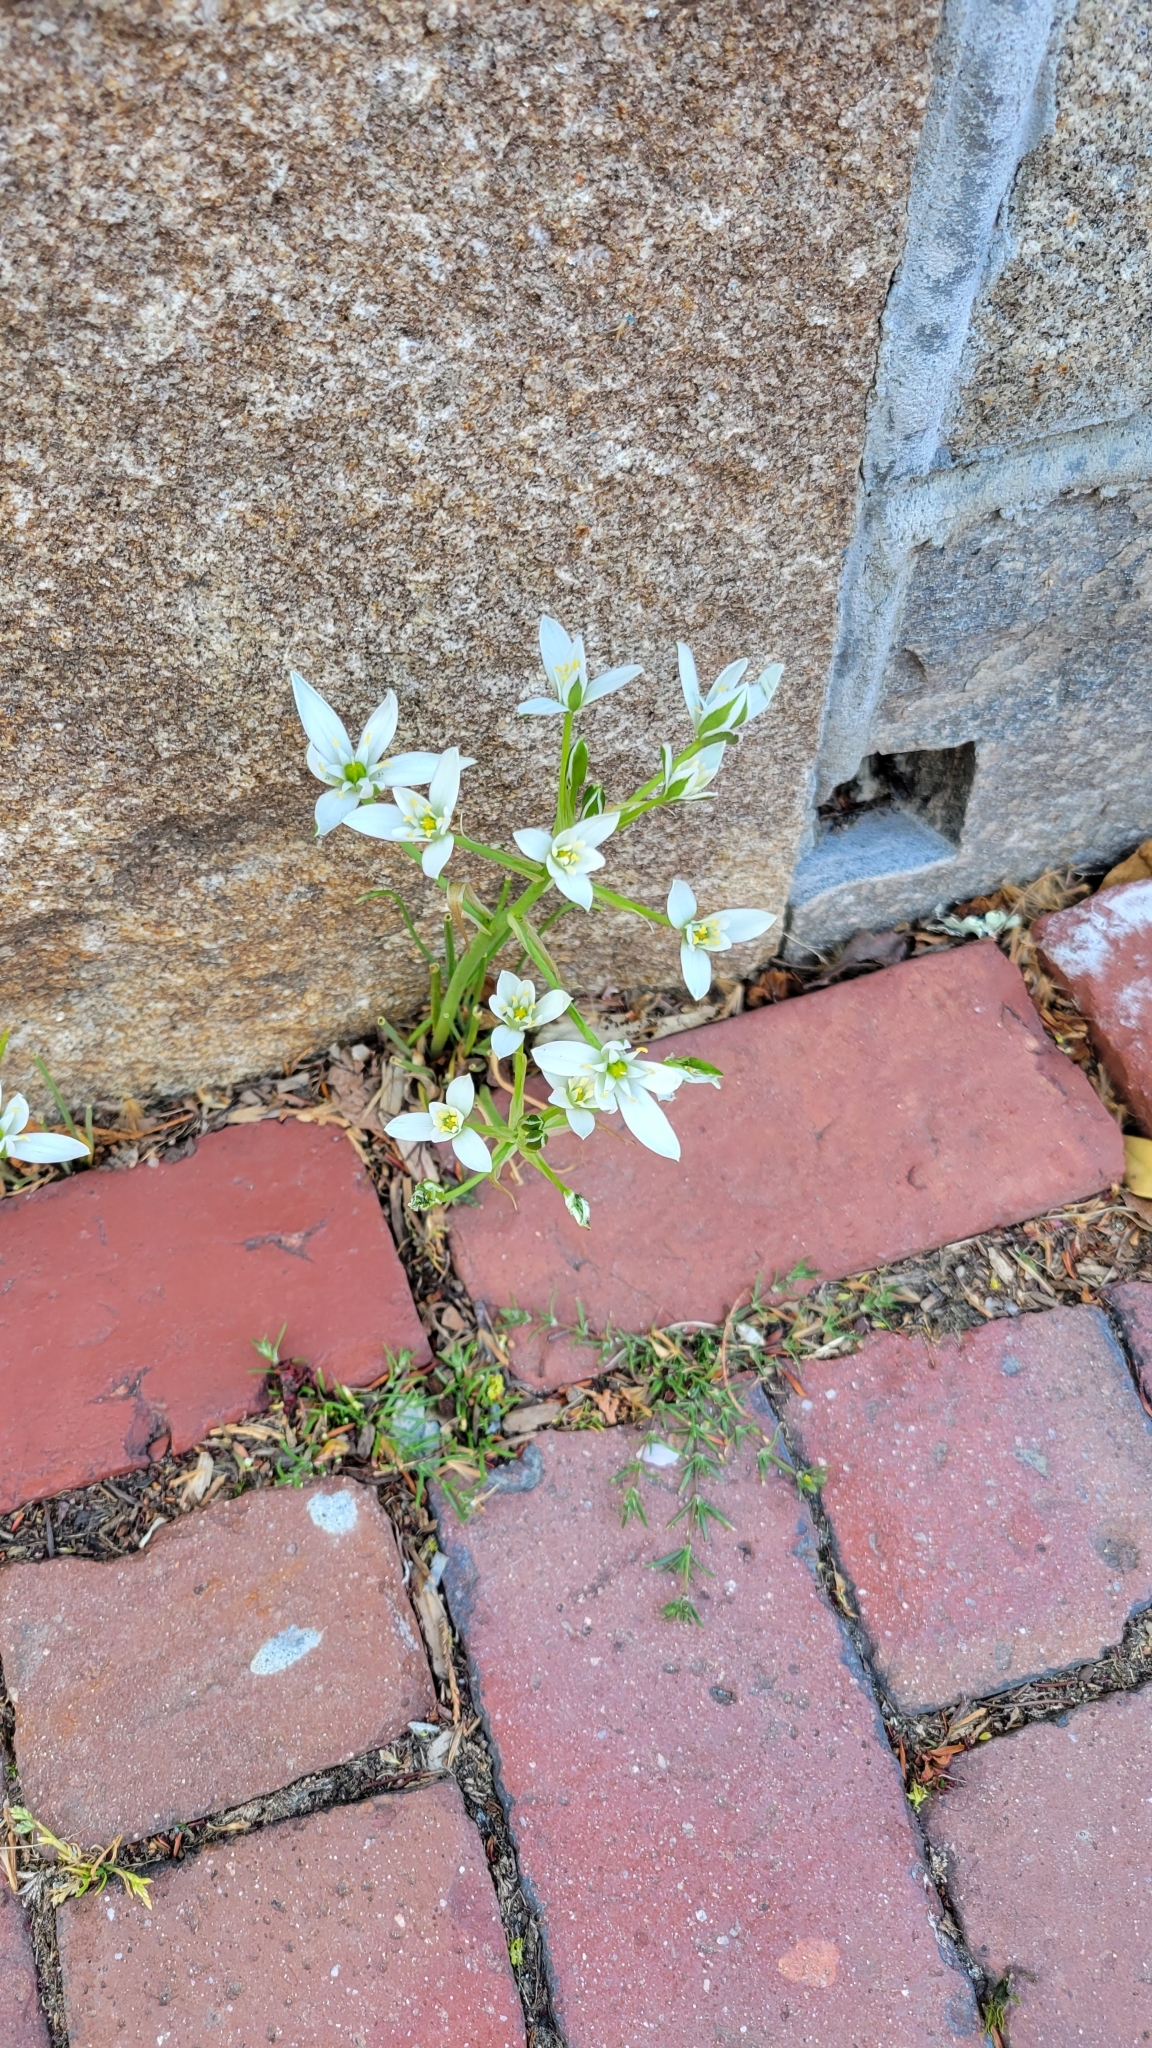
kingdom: Plantae
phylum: Tracheophyta
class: Liliopsida
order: Asparagales
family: Asparagaceae
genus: Ornithogalum
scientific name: Ornithogalum umbellatum
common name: Garden star-of-bethlehem
